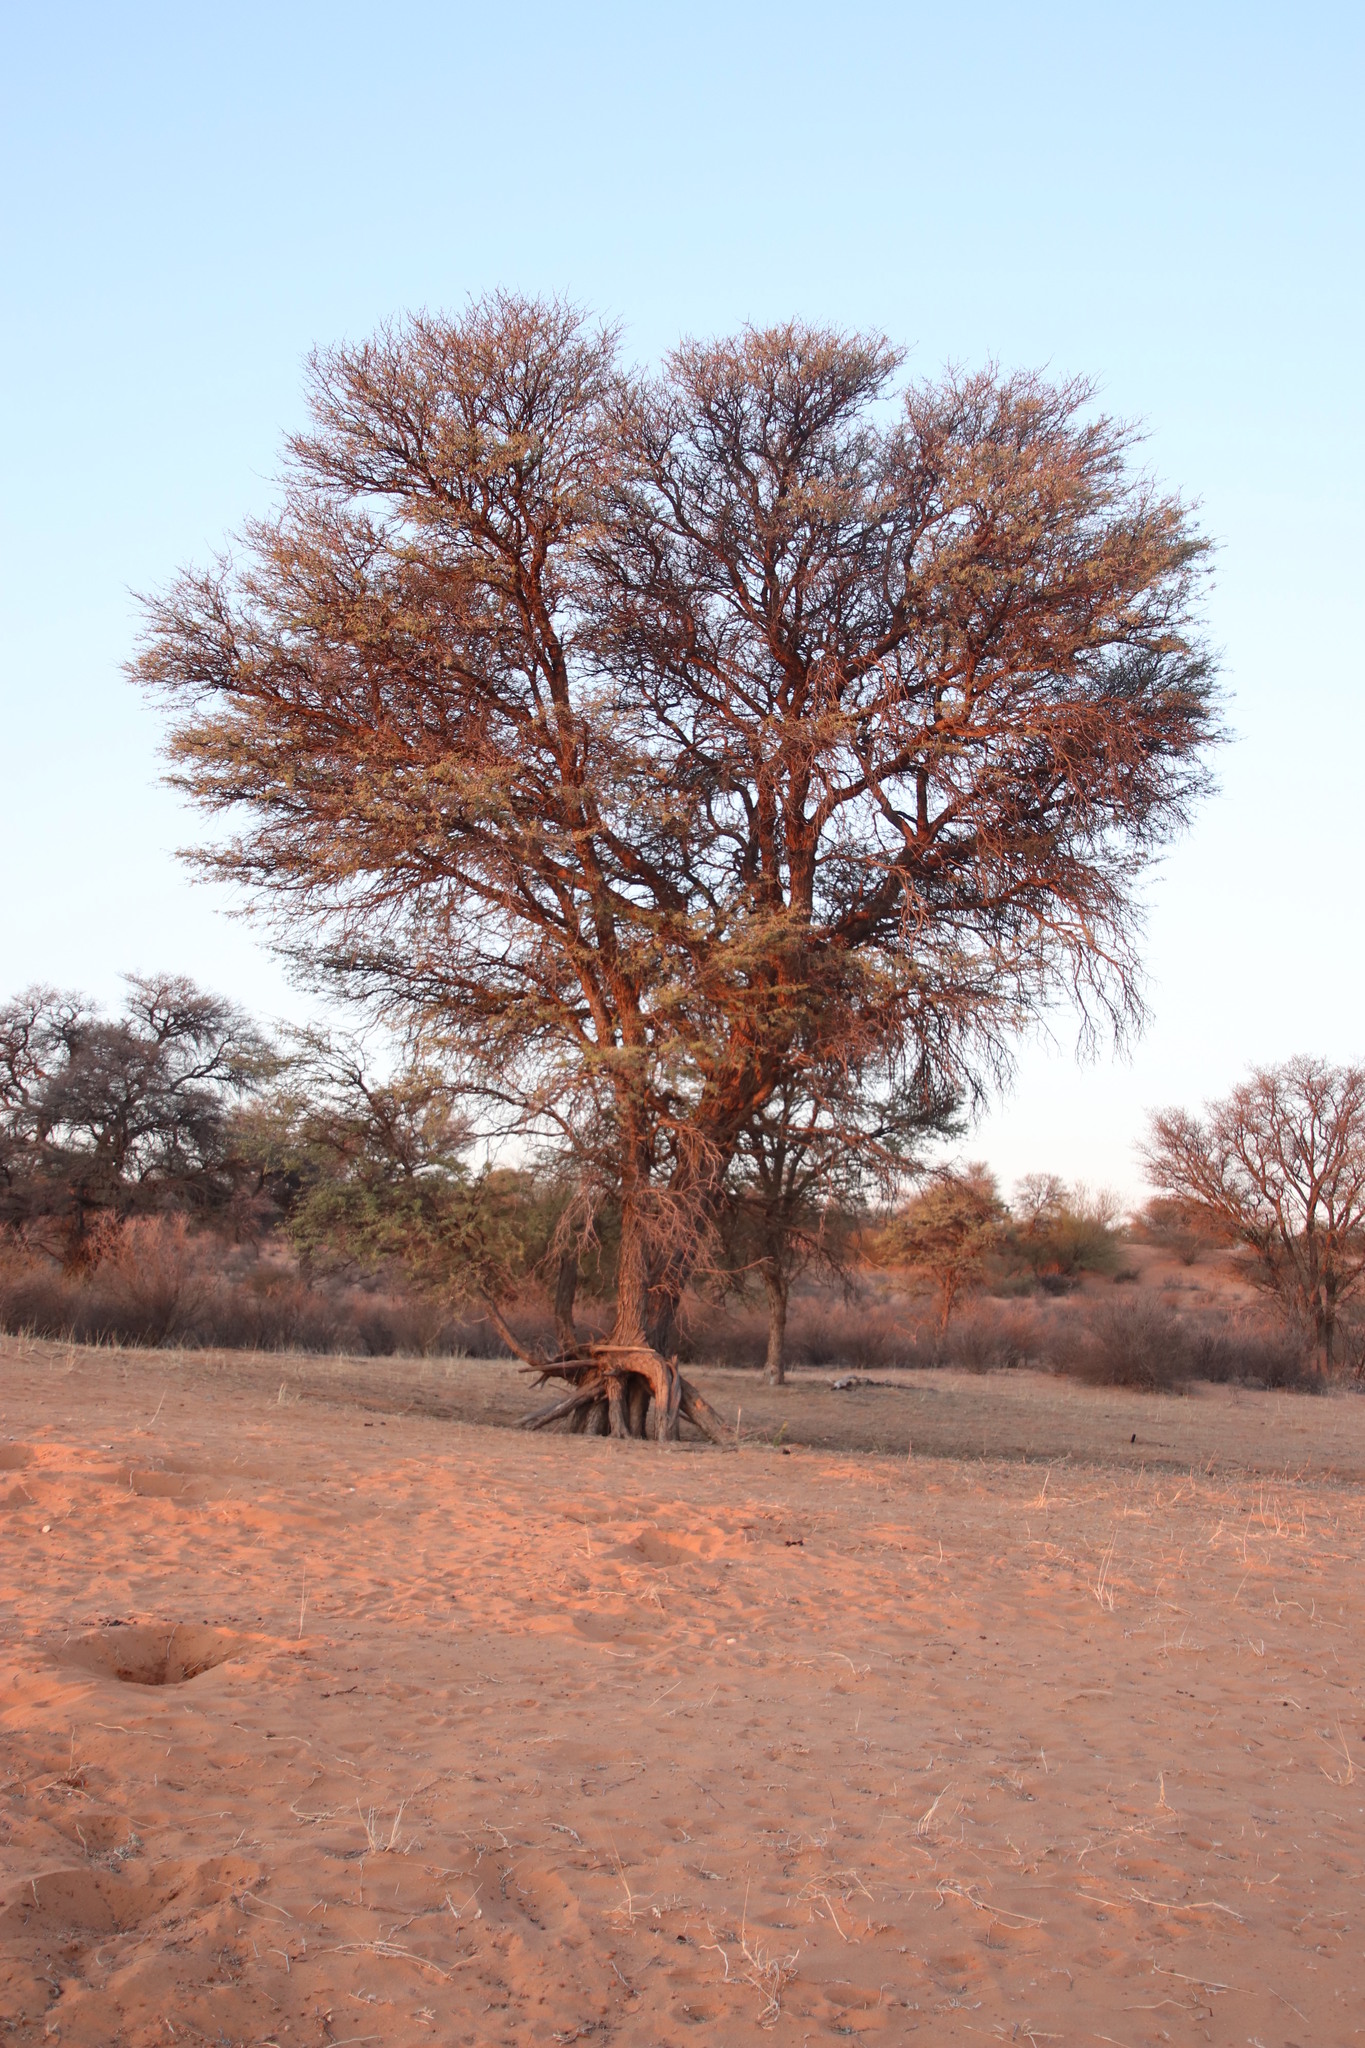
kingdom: Plantae
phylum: Tracheophyta
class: Magnoliopsida
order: Fabales
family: Fabaceae
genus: Vachellia
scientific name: Vachellia erioloba
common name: Camel thorn
